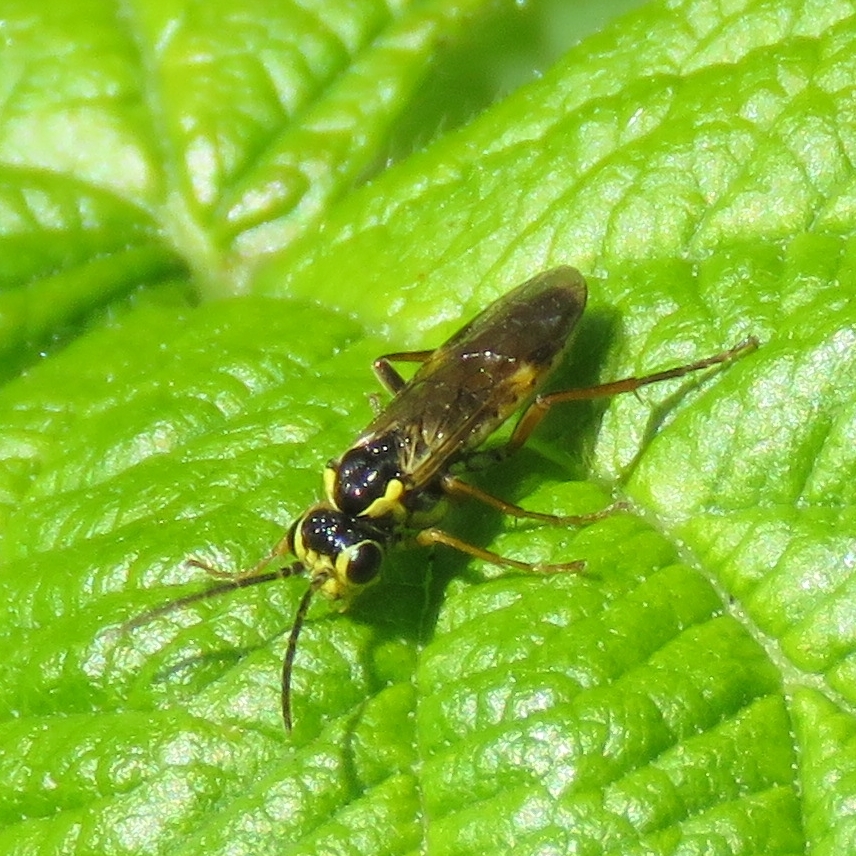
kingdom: Animalia
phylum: Arthropoda
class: Insecta
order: Hymenoptera
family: Tenthredinidae
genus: Aglaostigma
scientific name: Aglaostigma fulvipes
